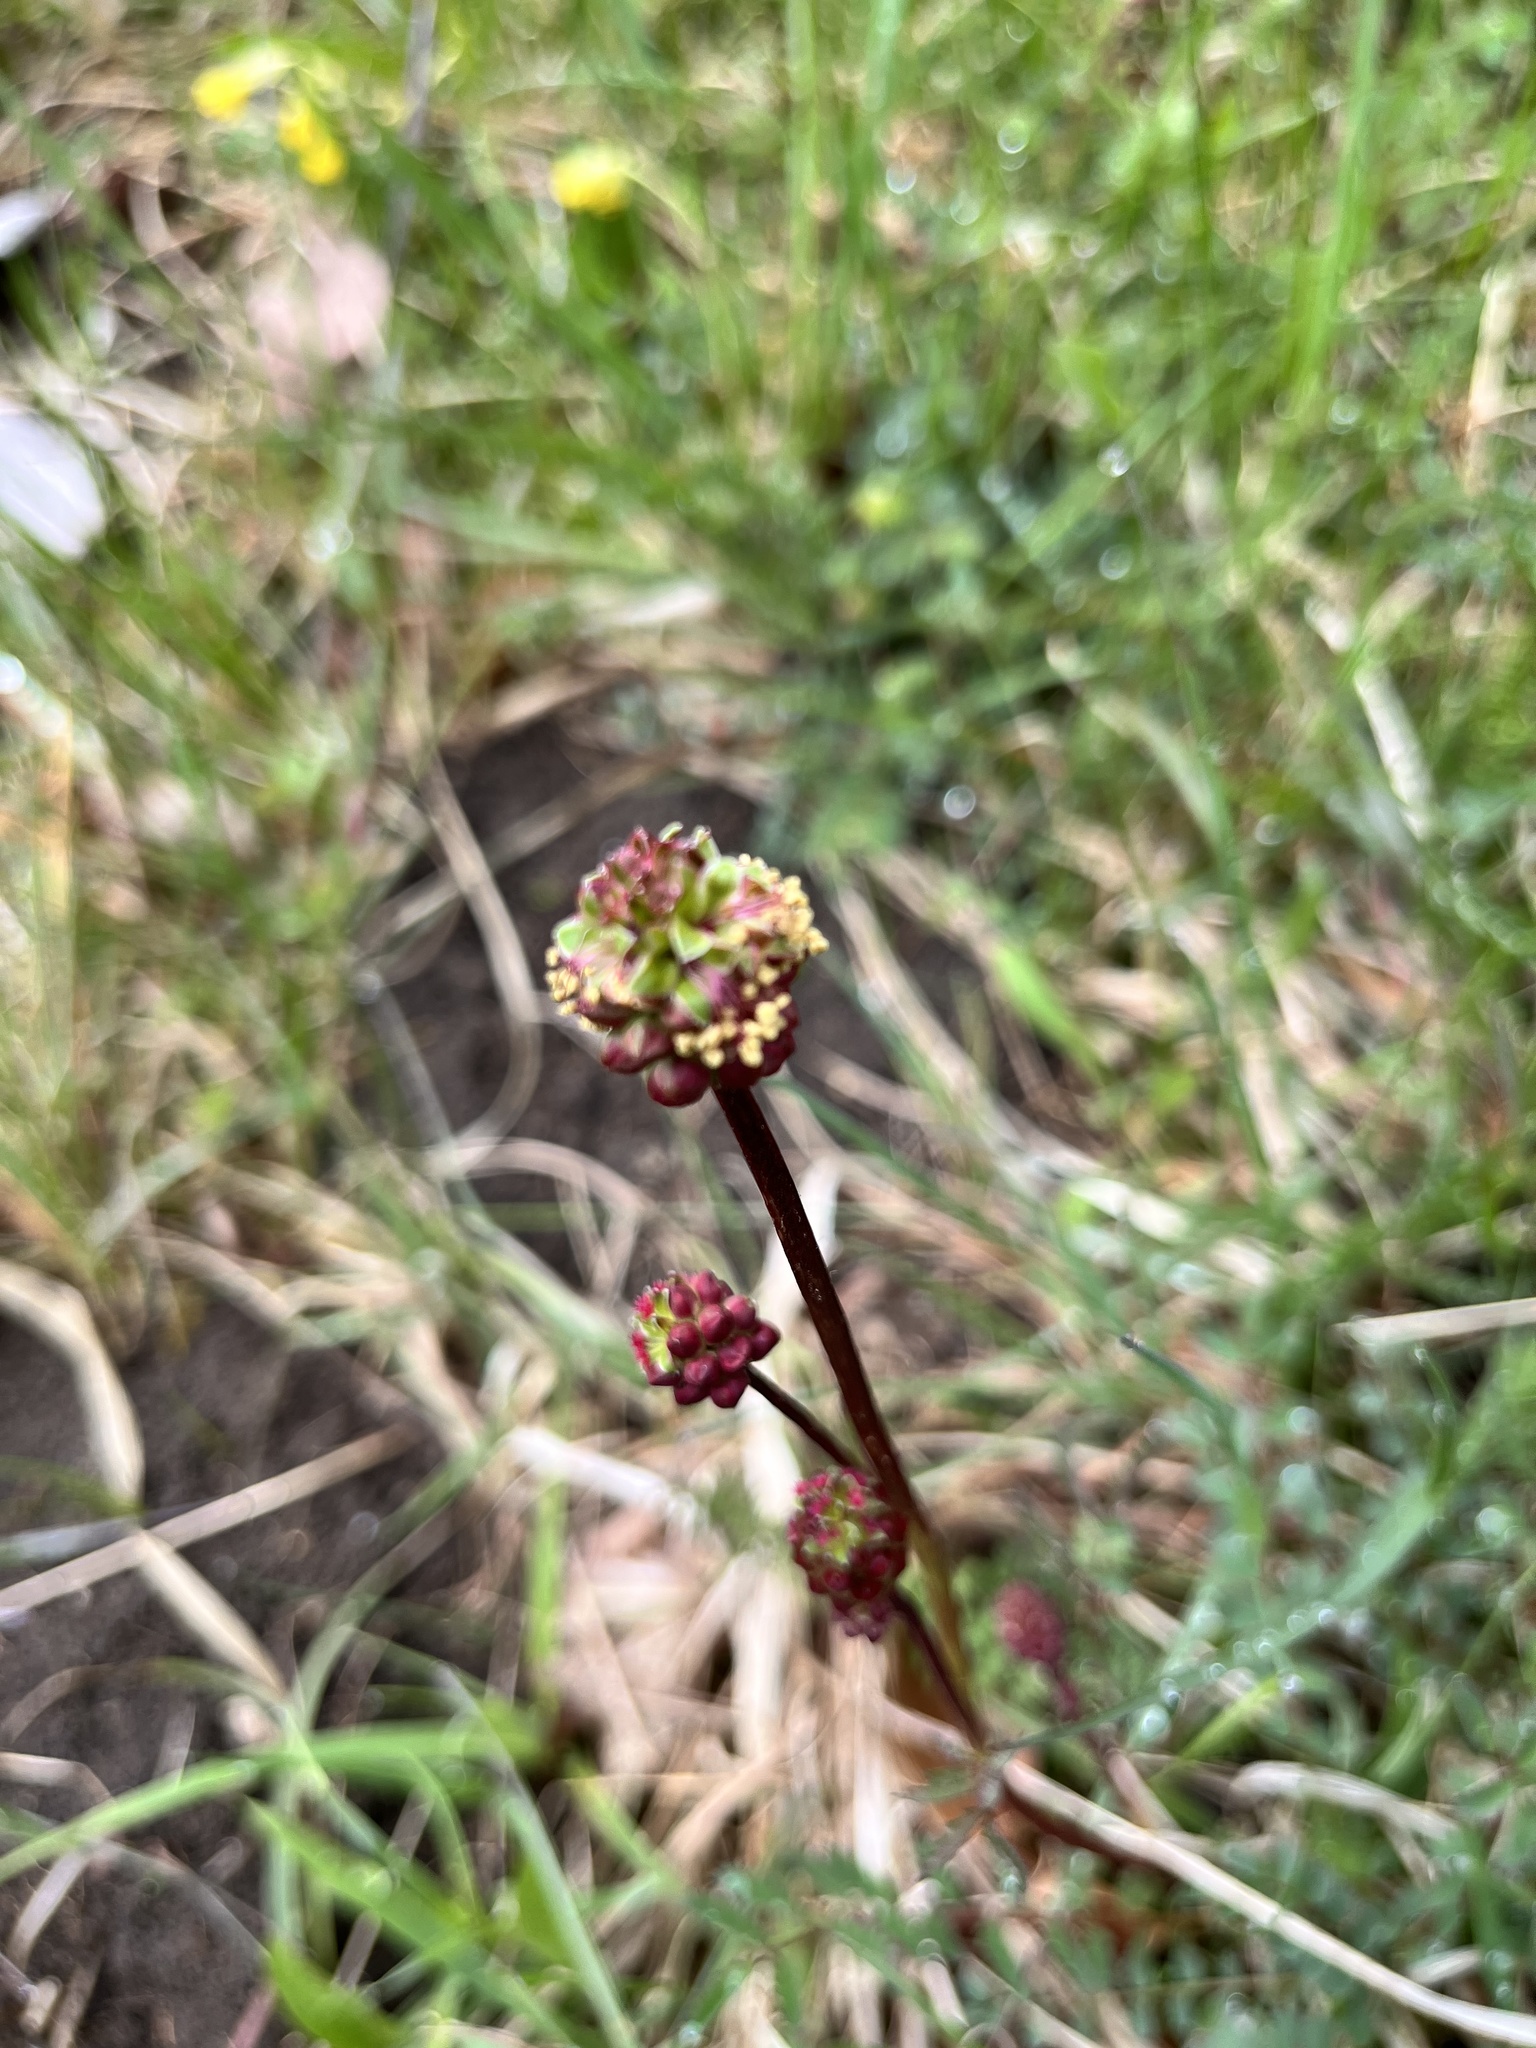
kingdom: Plantae
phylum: Tracheophyta
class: Magnoliopsida
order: Rosales
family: Rosaceae
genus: Poterium
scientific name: Poterium sanguisorba
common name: Salad burnet
